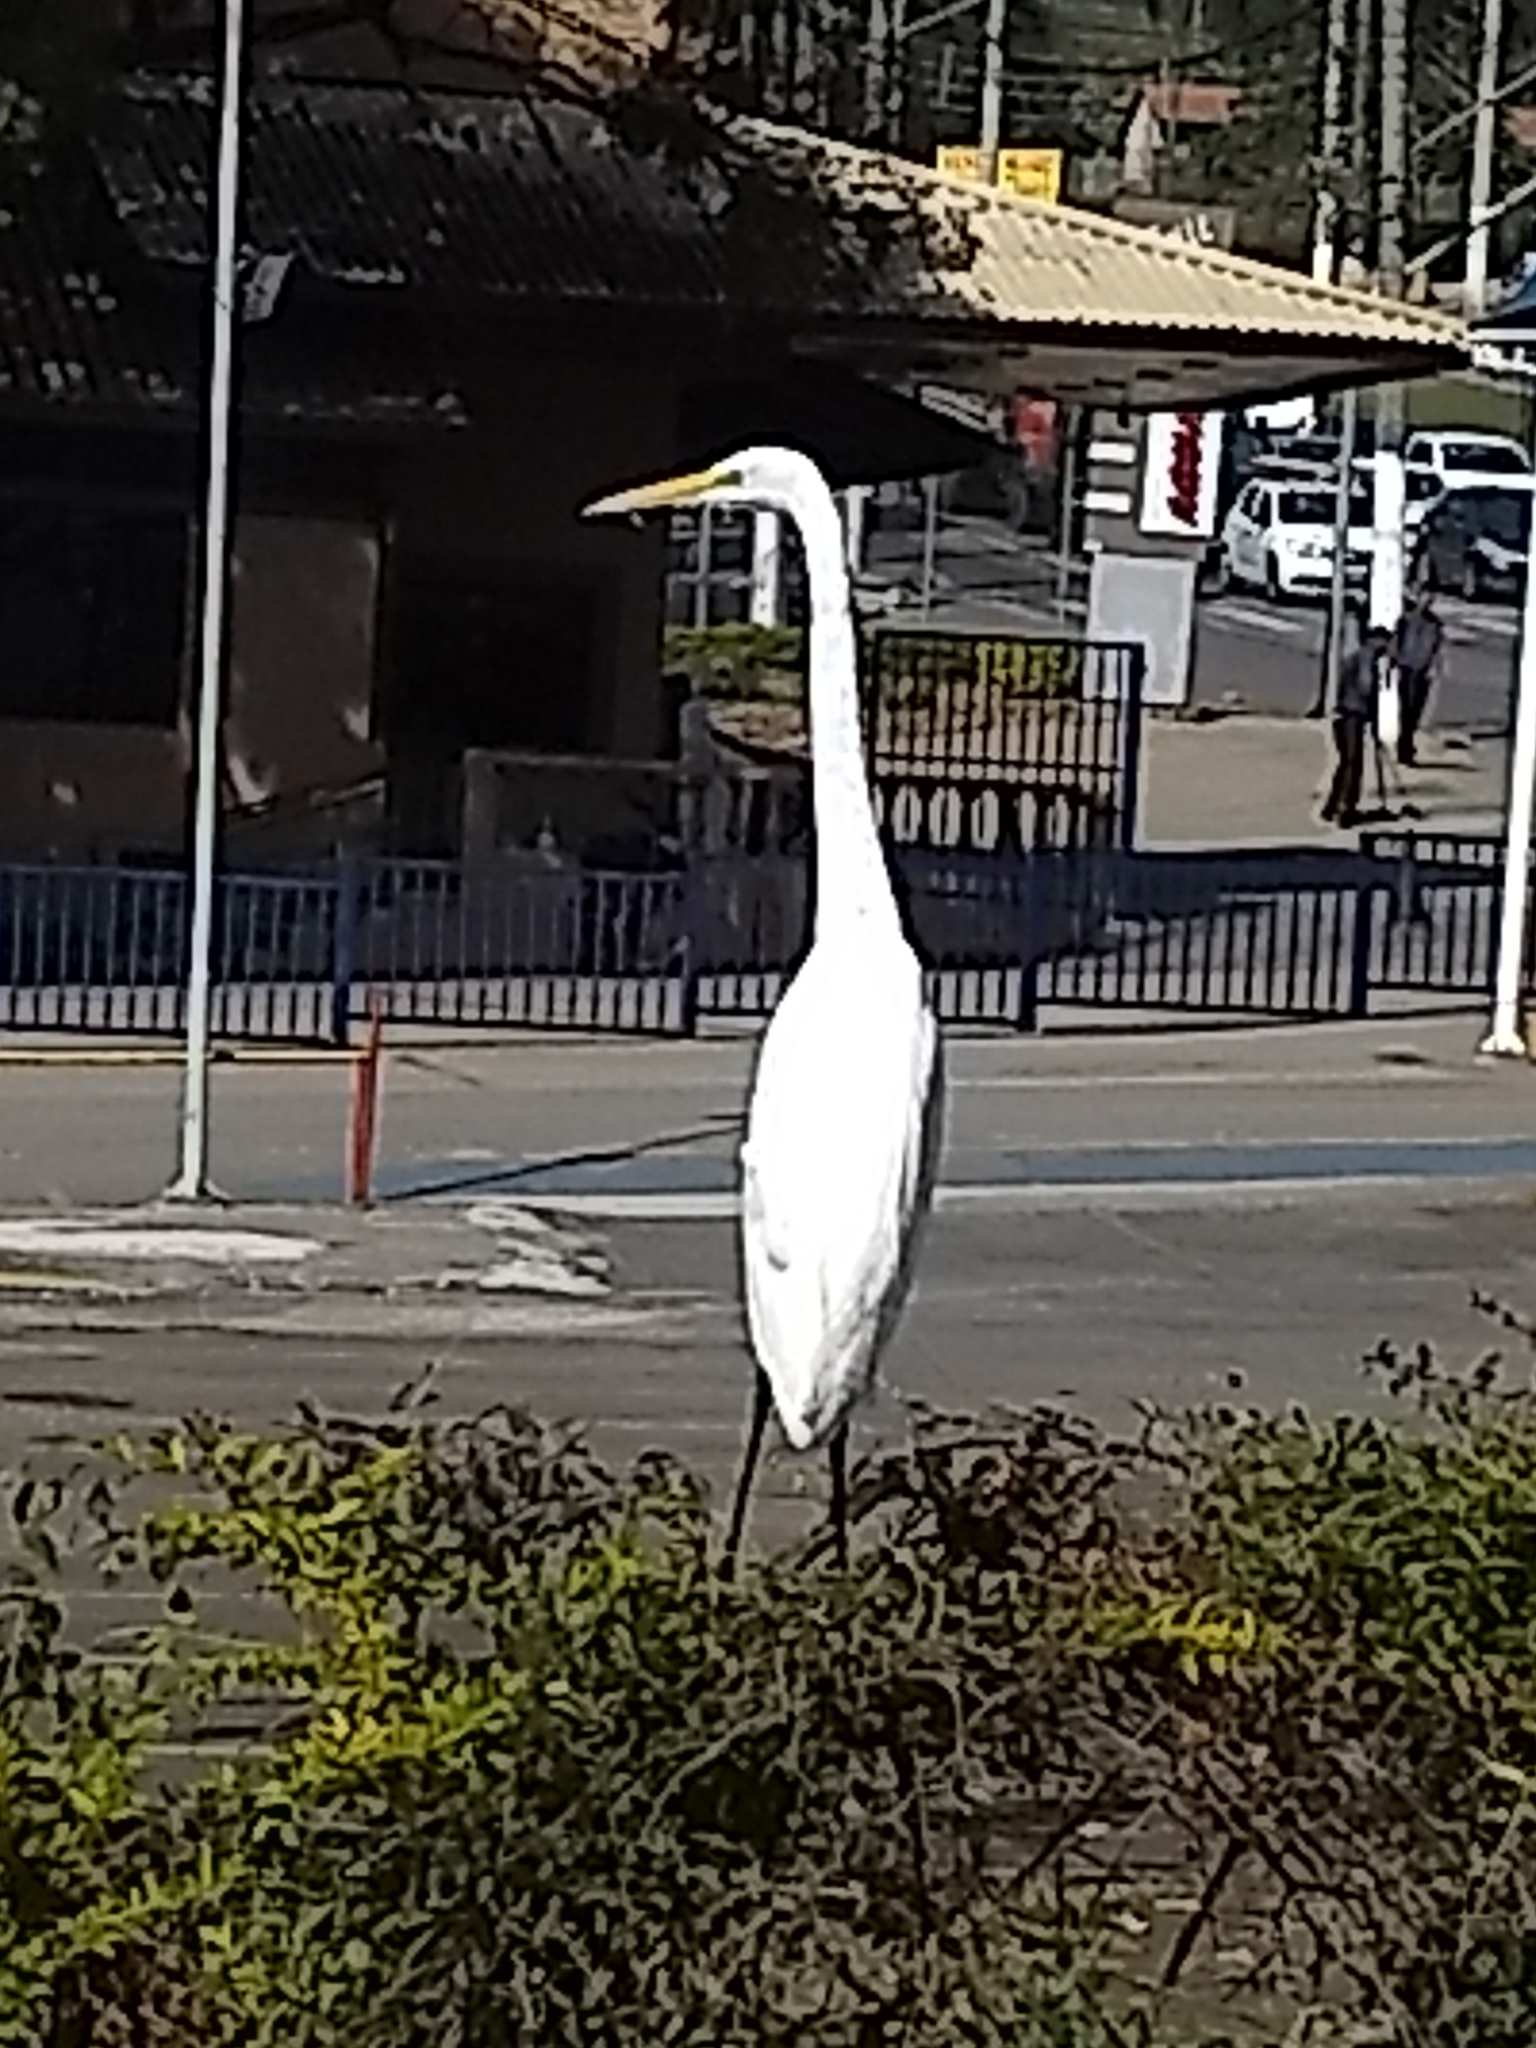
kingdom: Animalia
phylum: Chordata
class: Aves
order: Pelecaniformes
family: Ardeidae
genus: Ardea
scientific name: Ardea alba
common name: Great egret
